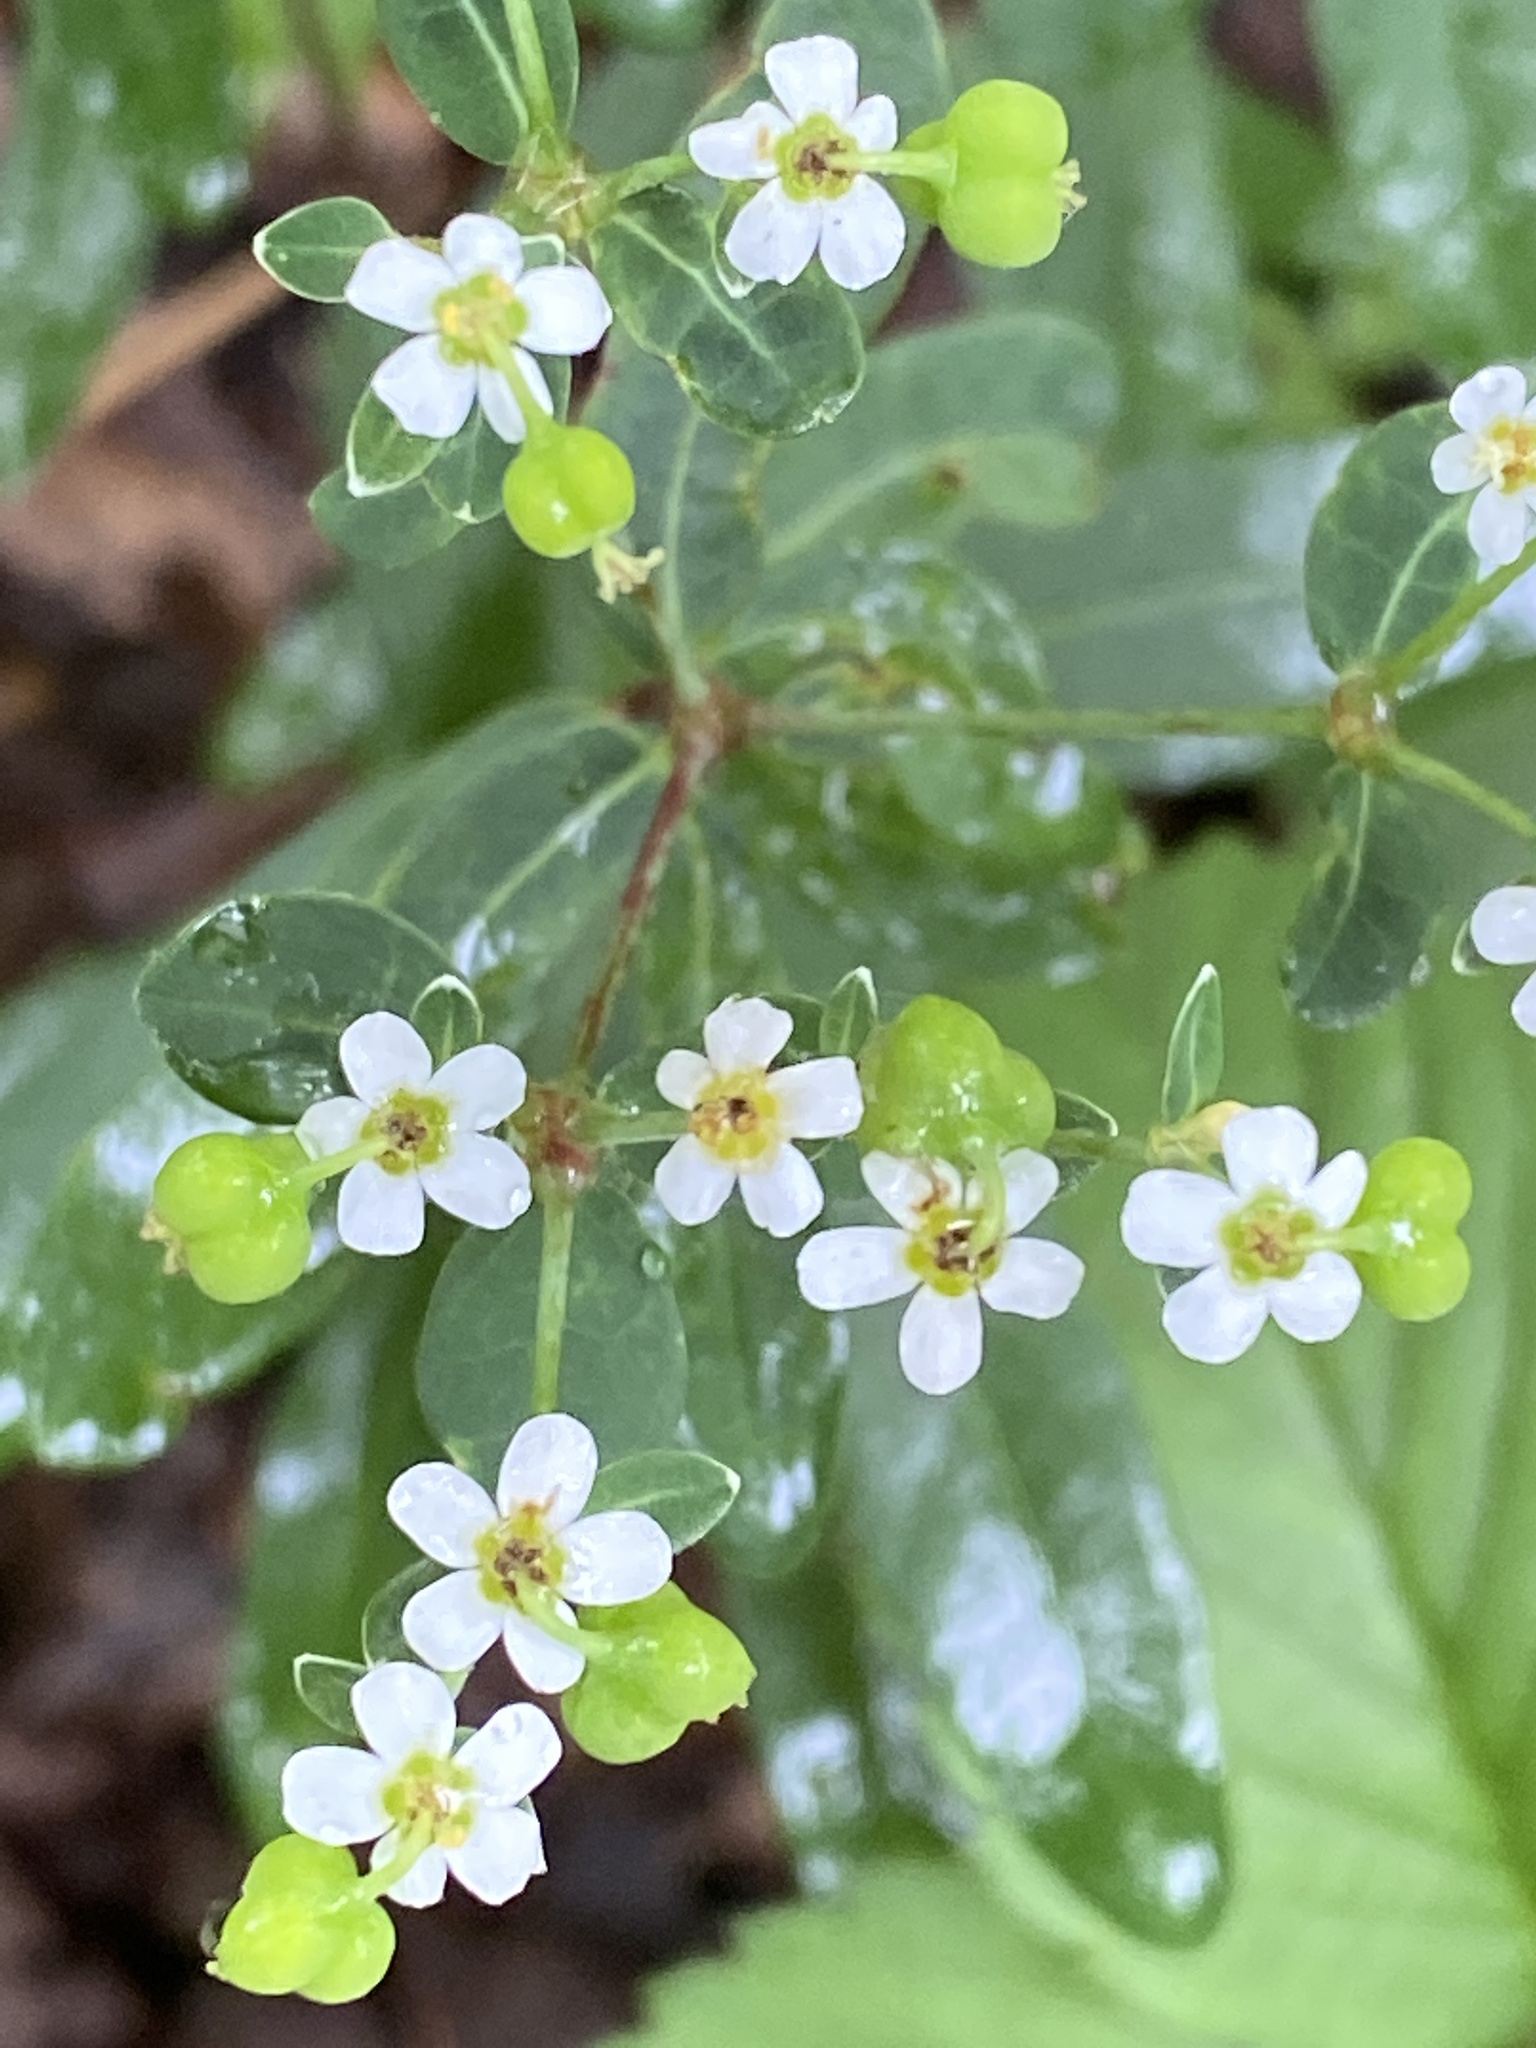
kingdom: Plantae
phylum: Tracheophyta
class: Magnoliopsida
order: Malpighiales
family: Euphorbiaceae
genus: Euphorbia
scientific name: Euphorbia corollata
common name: Flowering spurge
